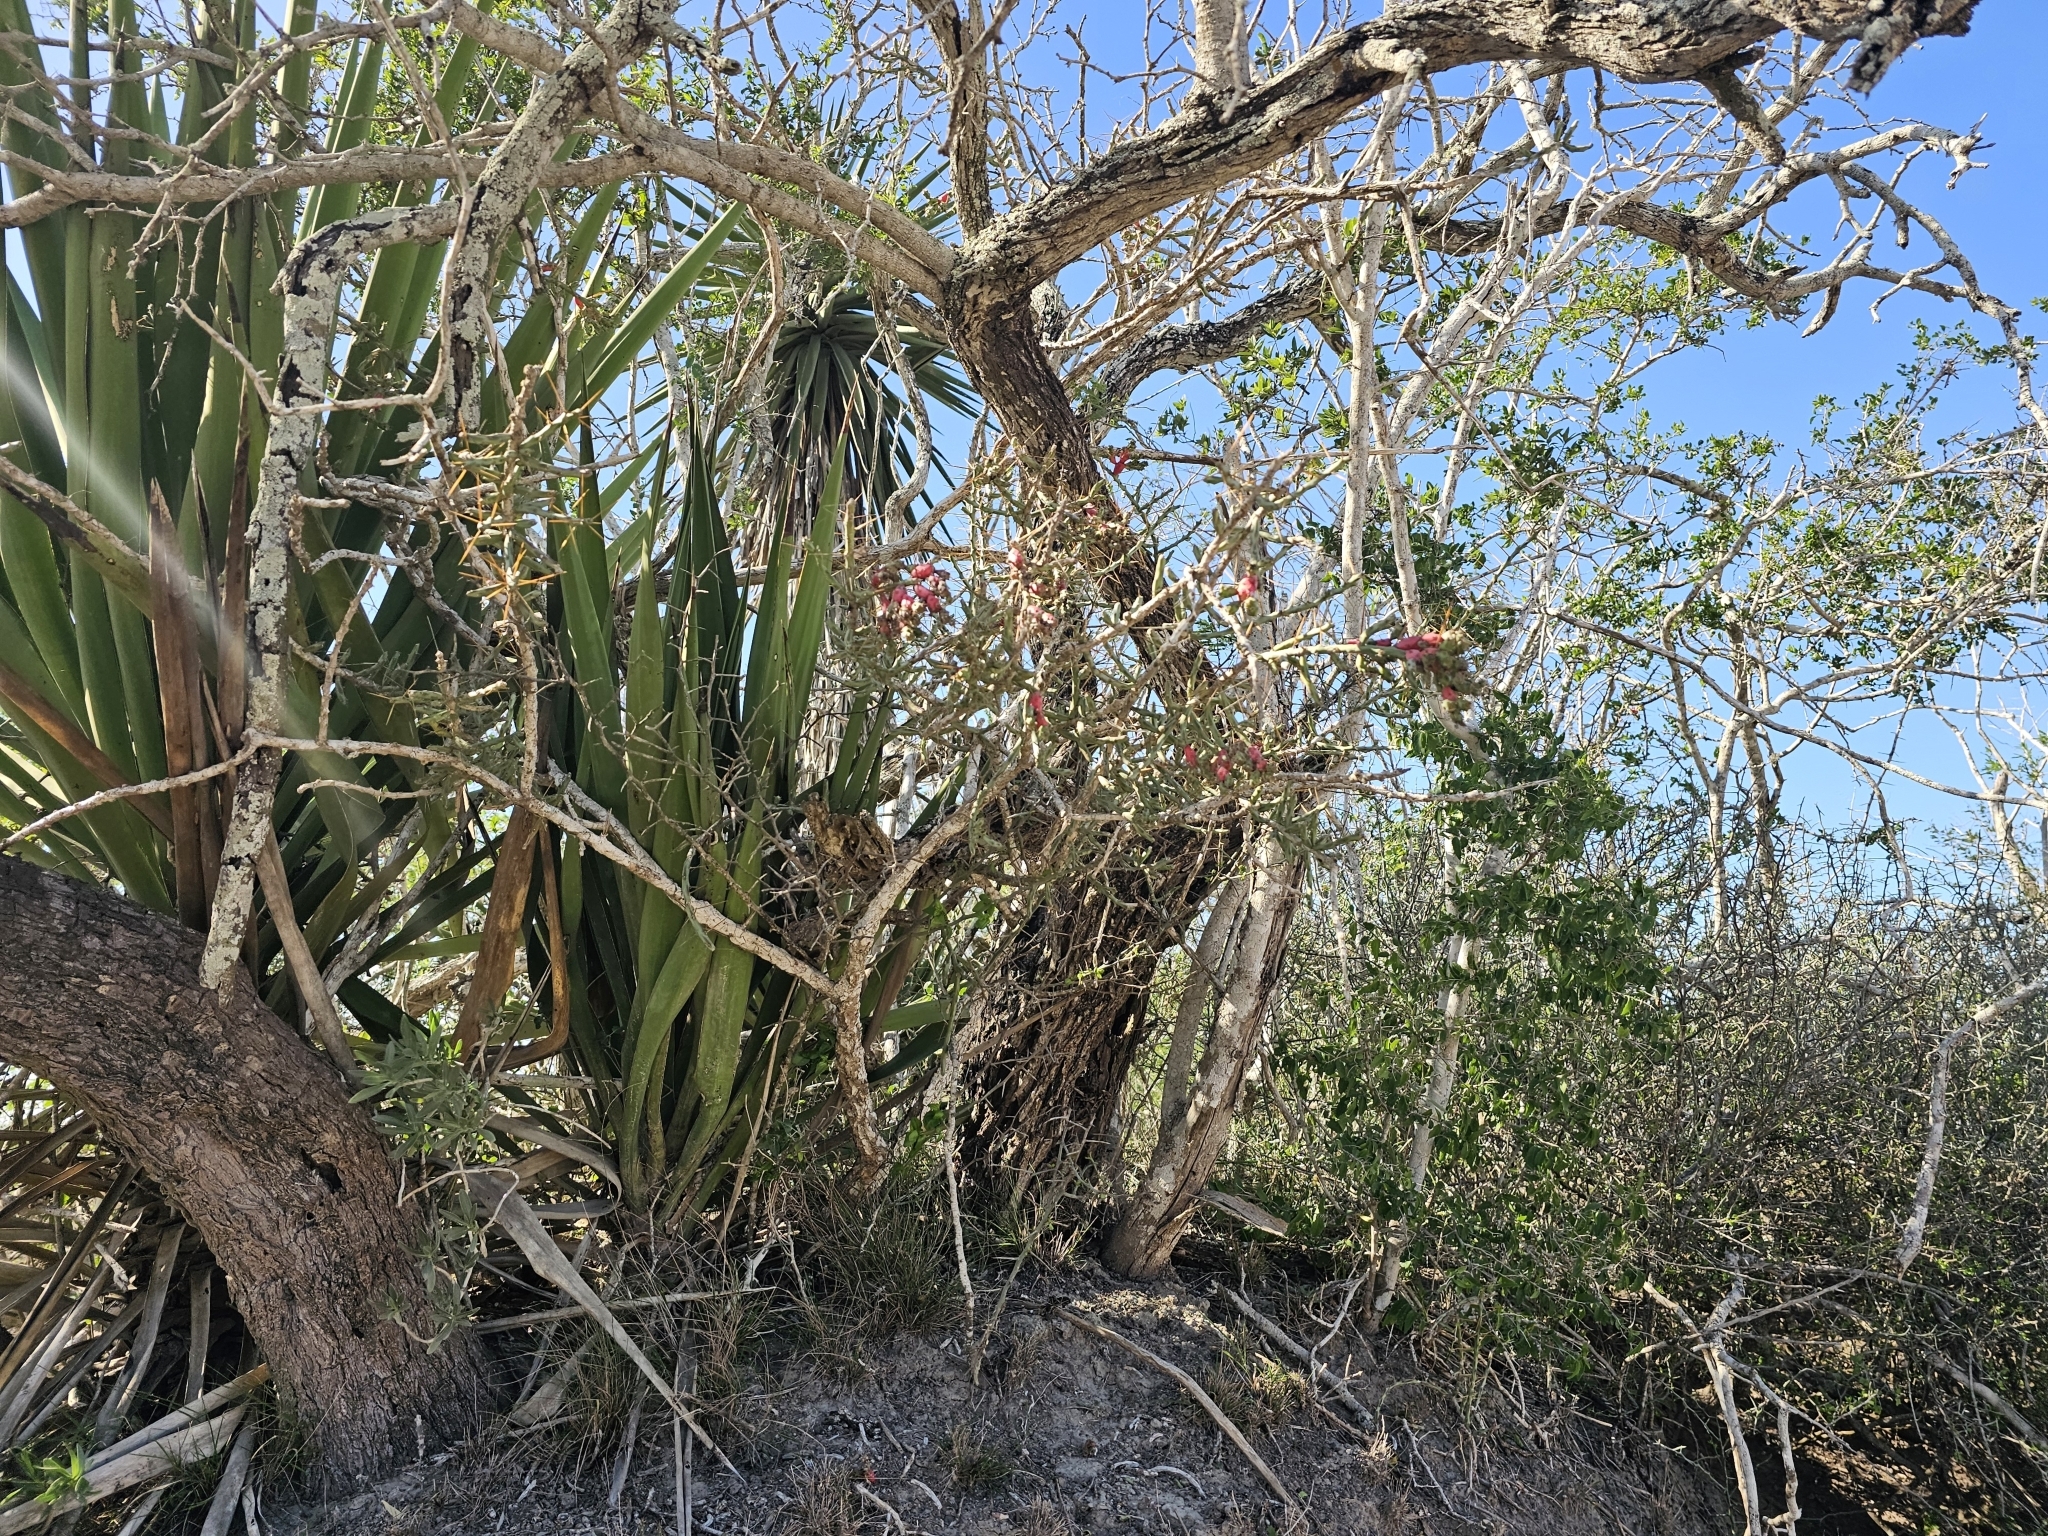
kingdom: Plantae
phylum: Tracheophyta
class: Magnoliopsida
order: Caryophyllales
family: Cactaceae
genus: Cylindropuntia
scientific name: Cylindropuntia leptocaulis
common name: Christmas cactus
